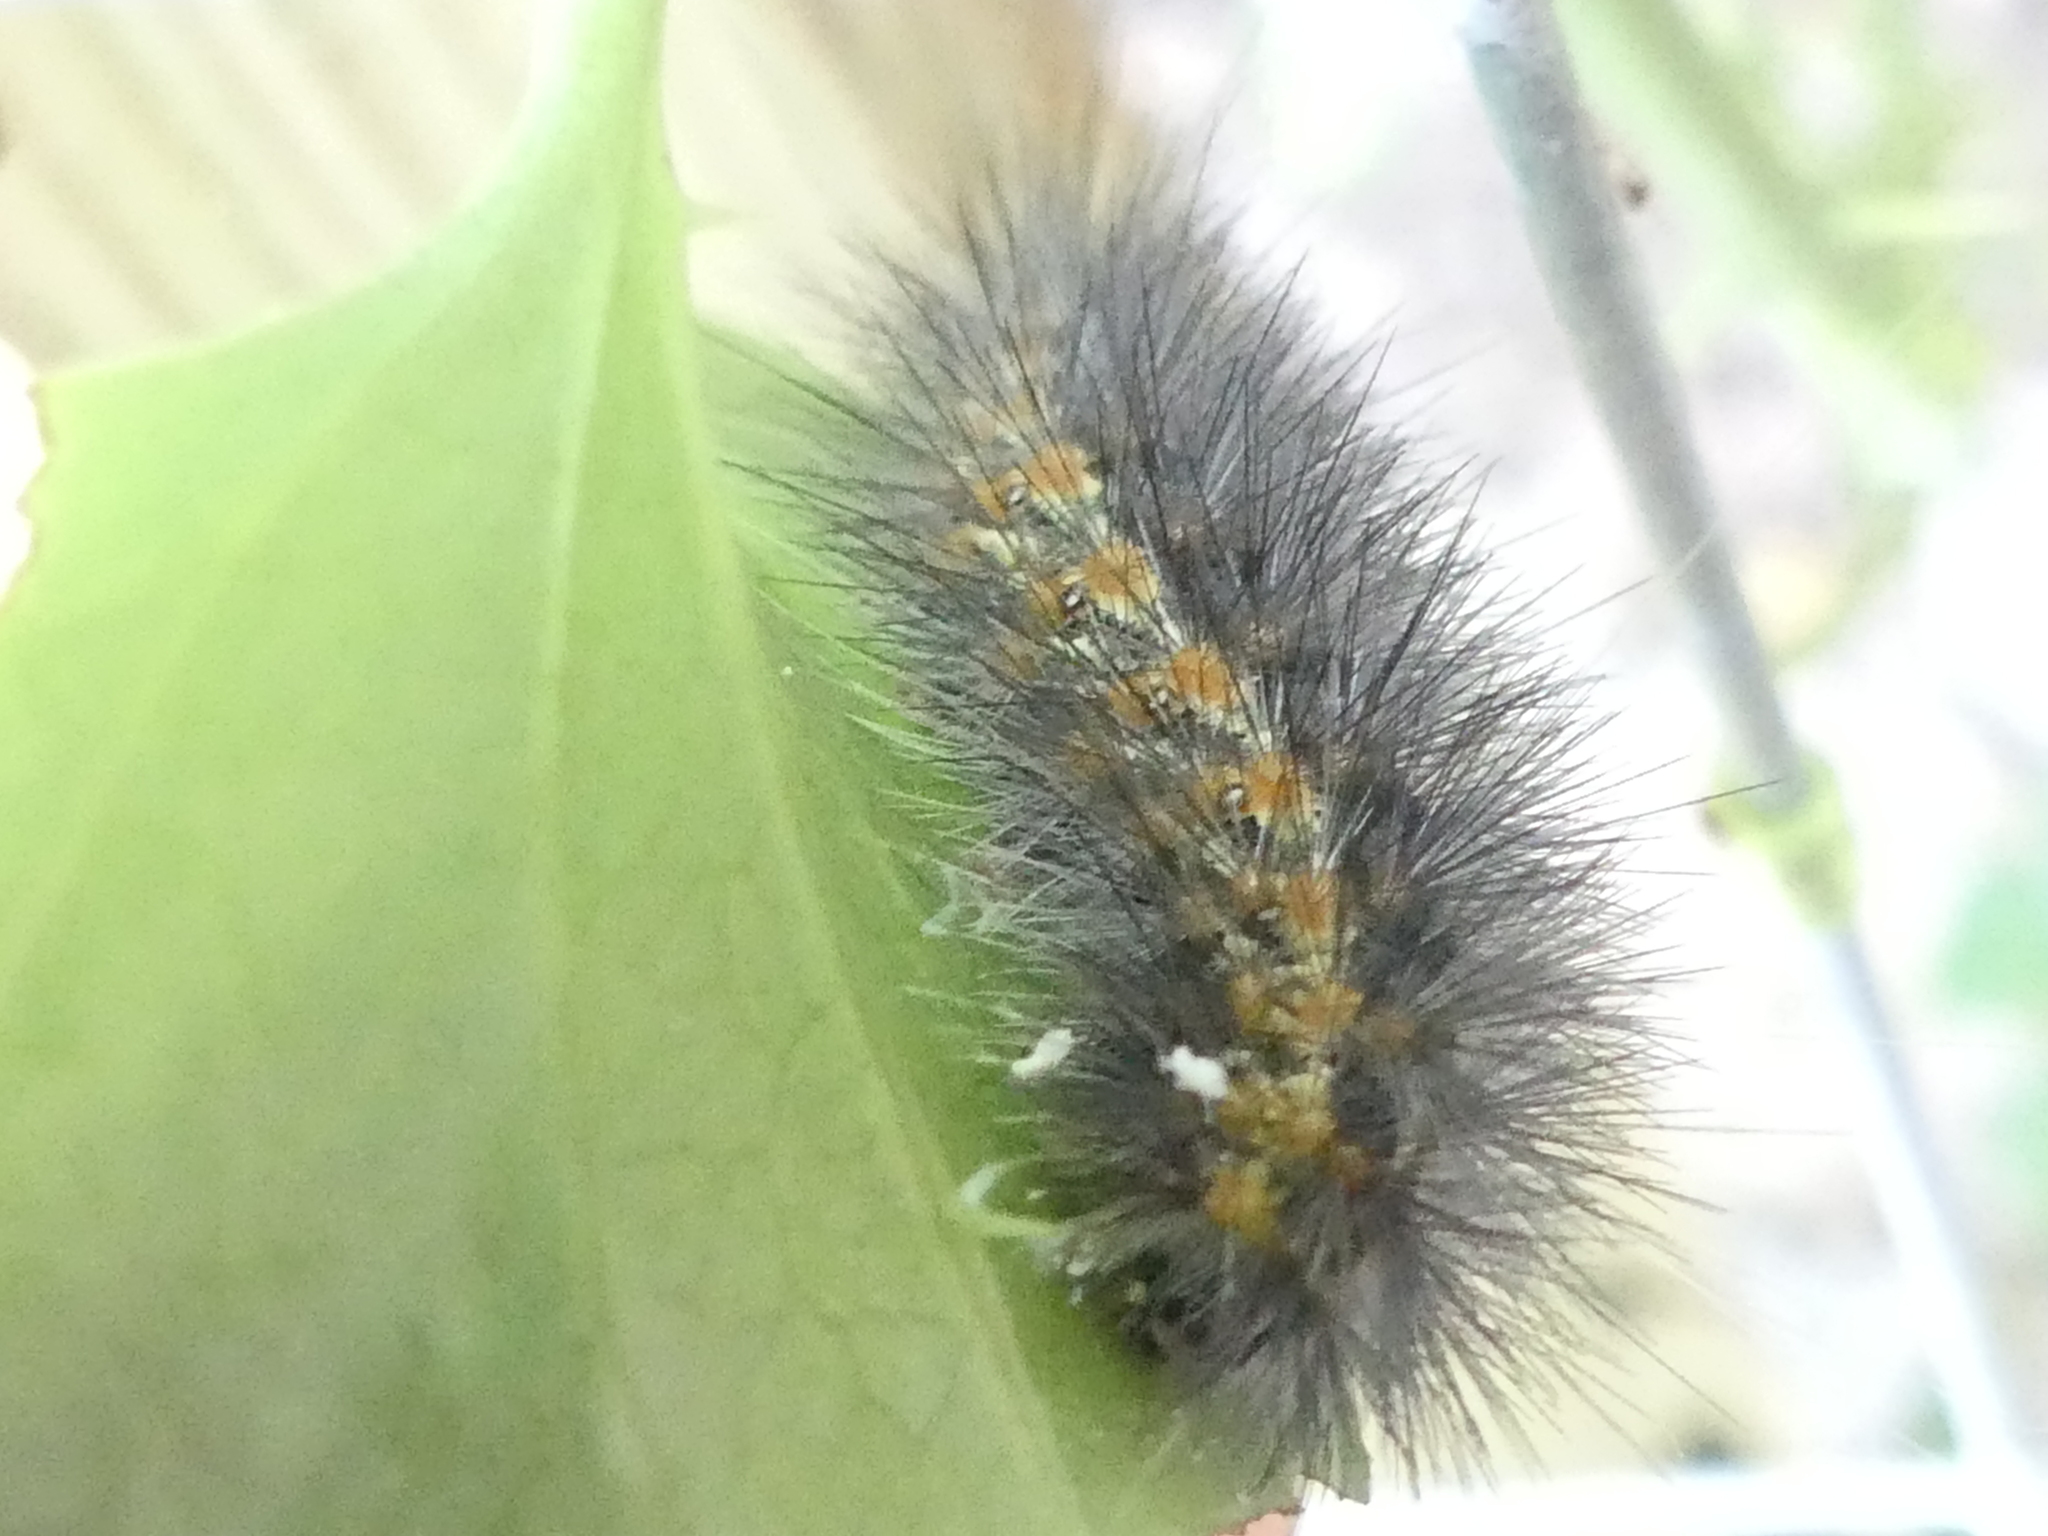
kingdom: Animalia
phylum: Arthropoda
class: Insecta
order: Lepidoptera
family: Erebidae
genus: Estigmene
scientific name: Estigmene acrea
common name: Salt marsh moth
